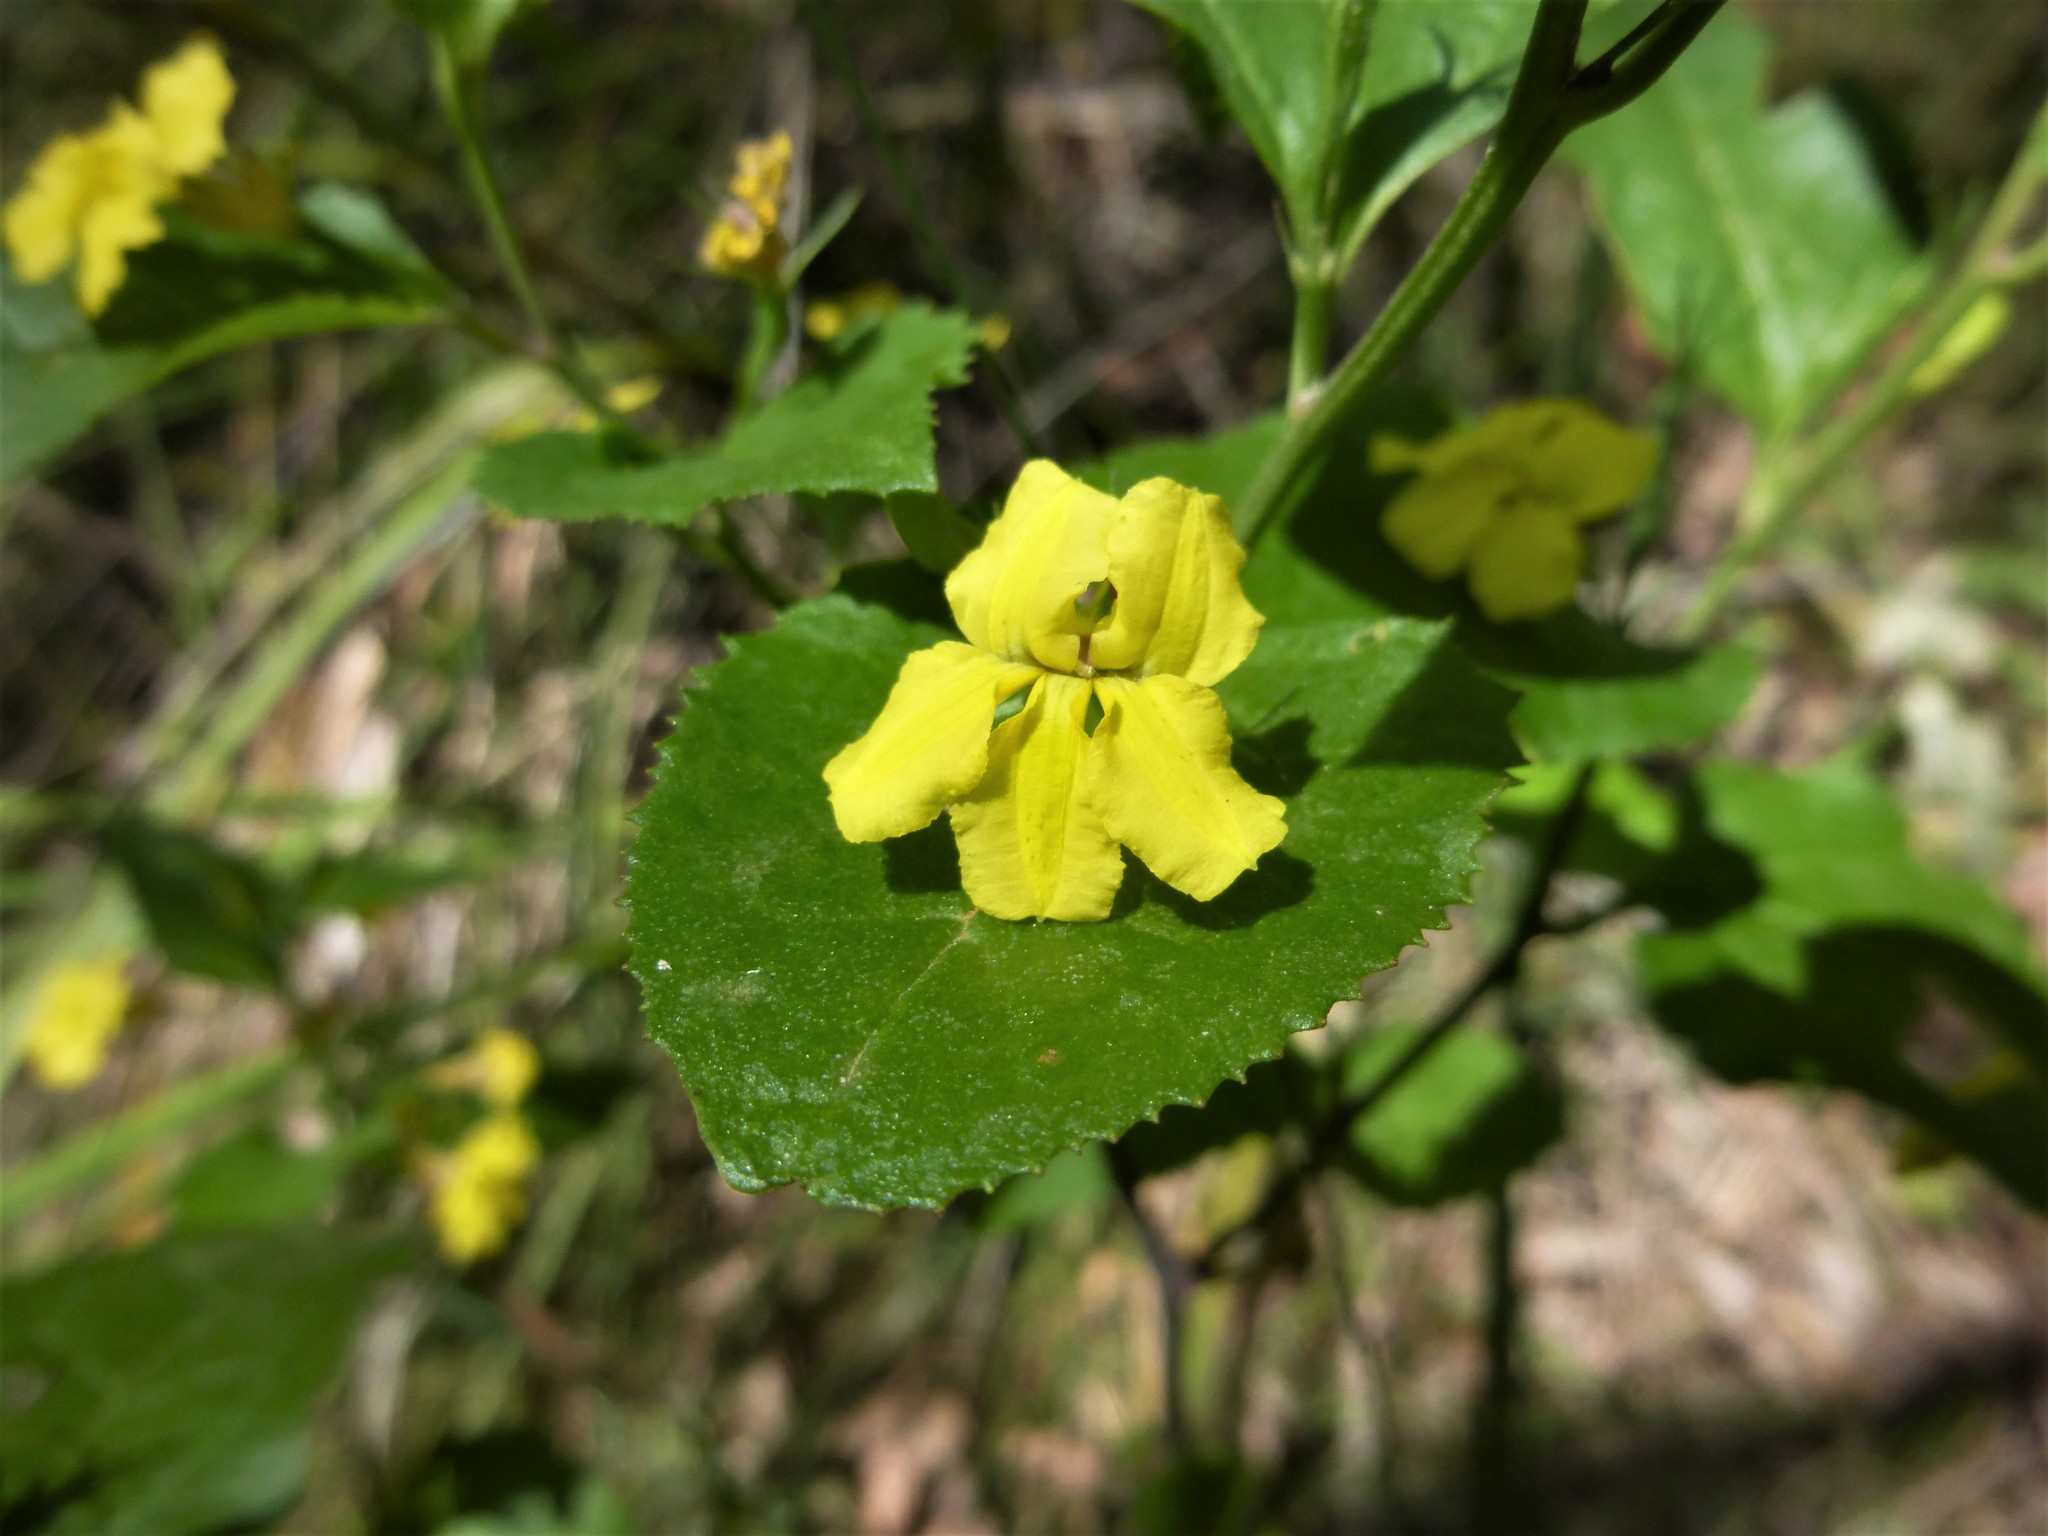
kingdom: Plantae
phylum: Tracheophyta
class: Magnoliopsida
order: Asterales
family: Goodeniaceae
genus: Goodenia
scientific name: Goodenia ovata
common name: Hop goodenia
